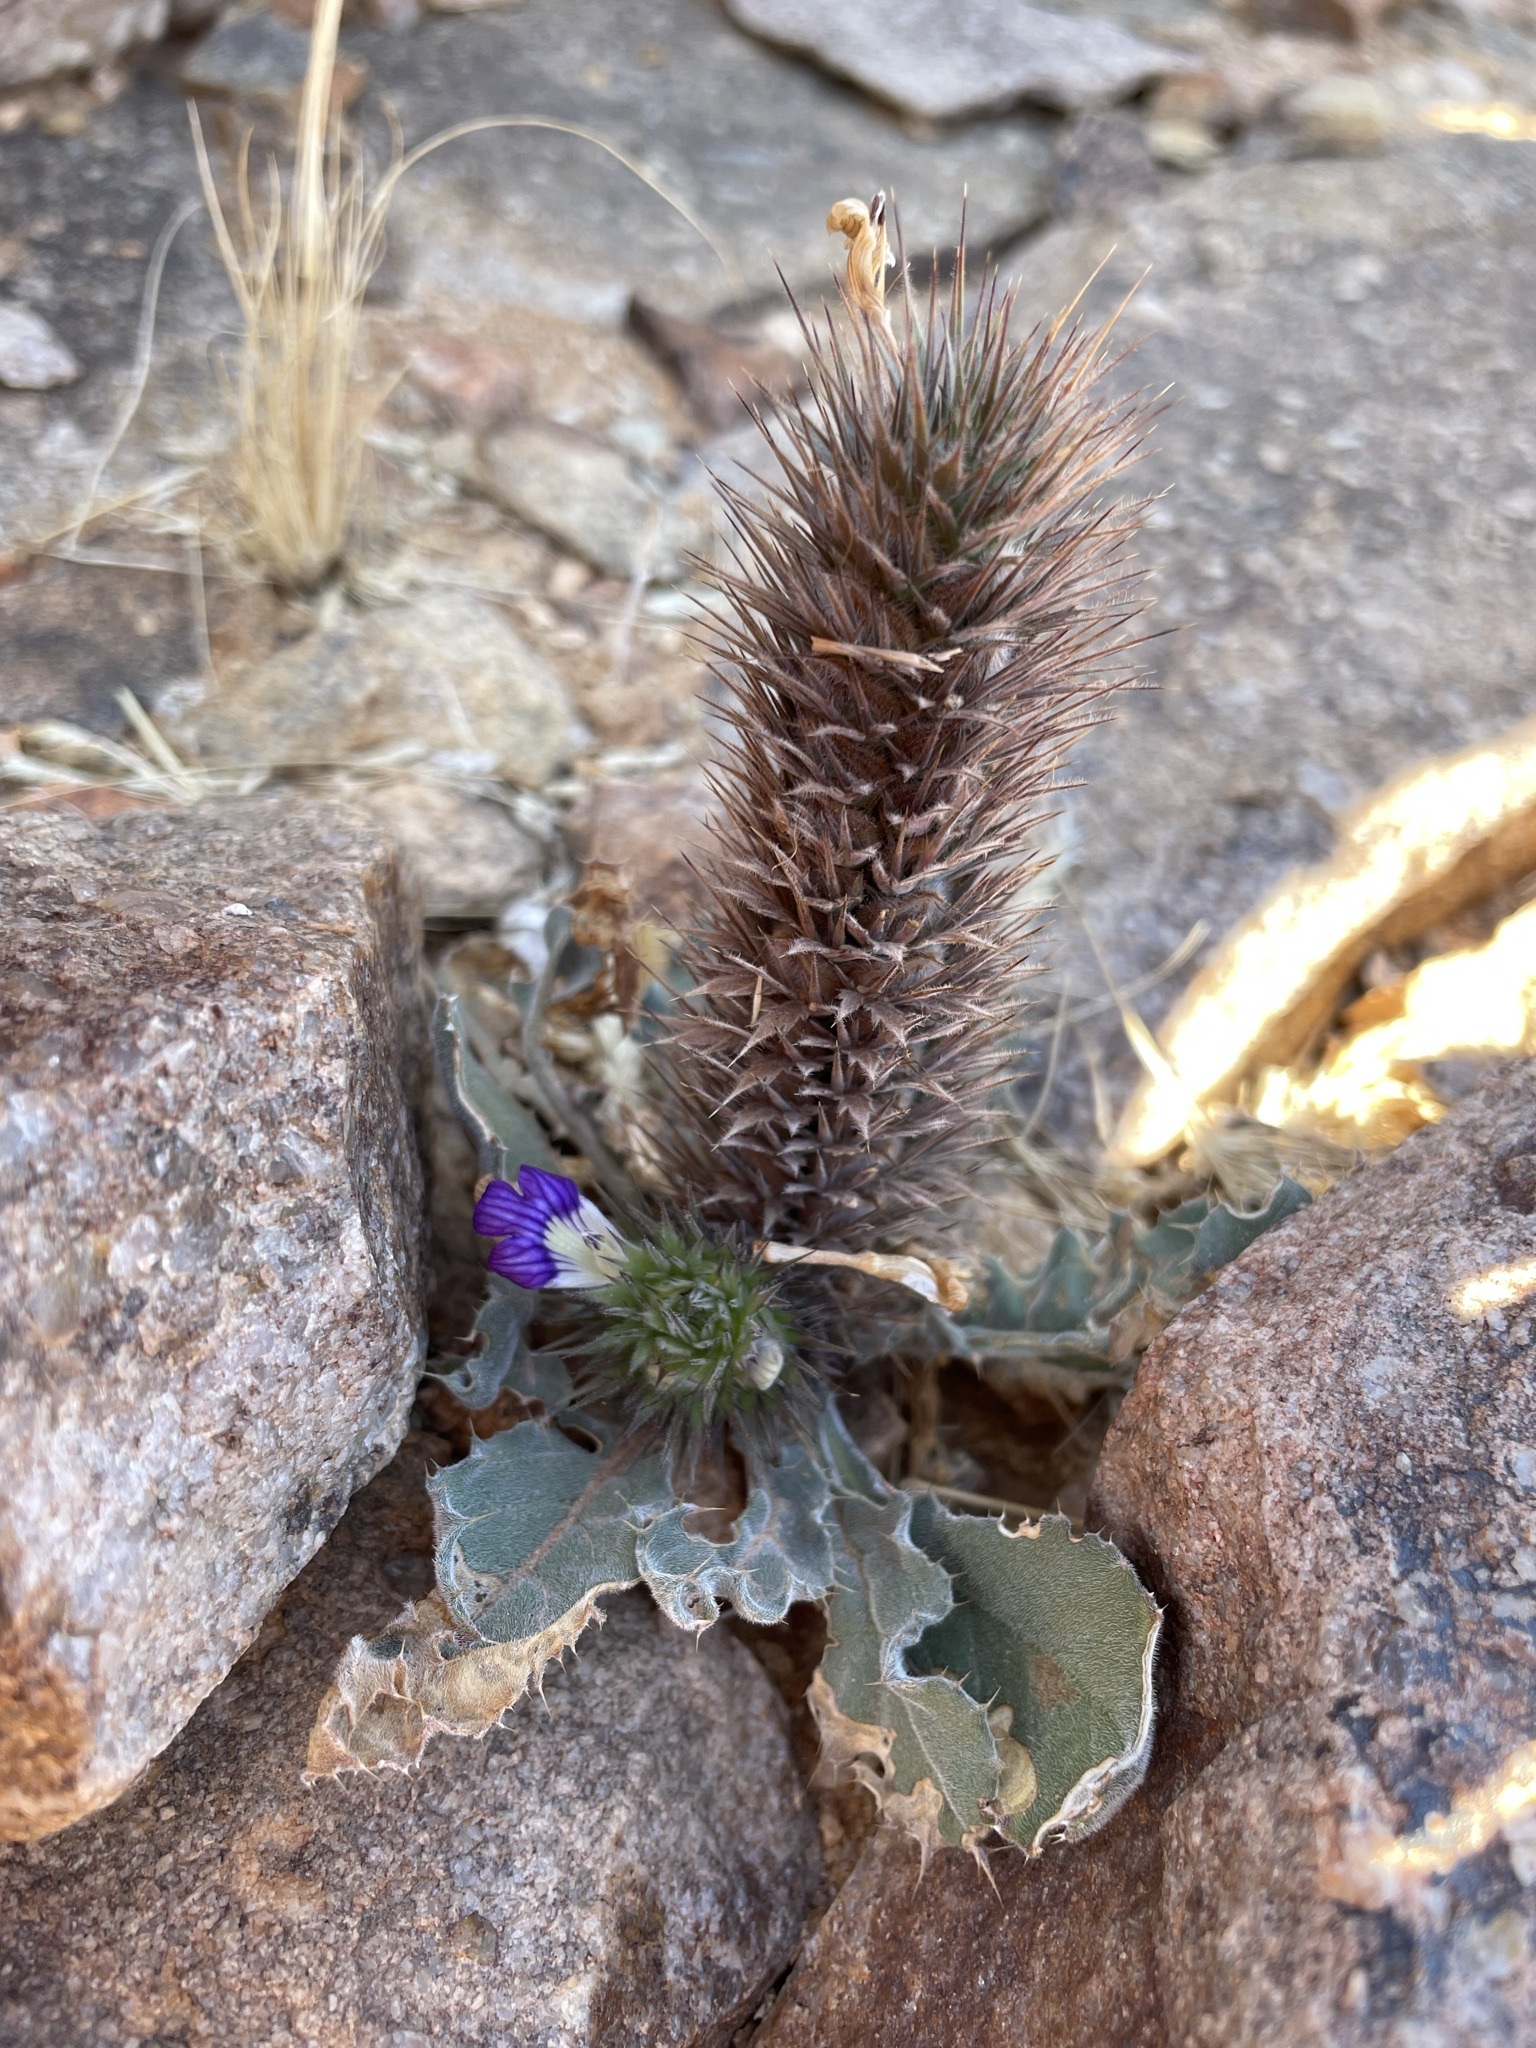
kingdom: Plantae
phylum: Tracheophyta
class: Magnoliopsida
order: Lamiales
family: Acanthaceae
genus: Acanthopsis
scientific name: Acanthopsis disperma
